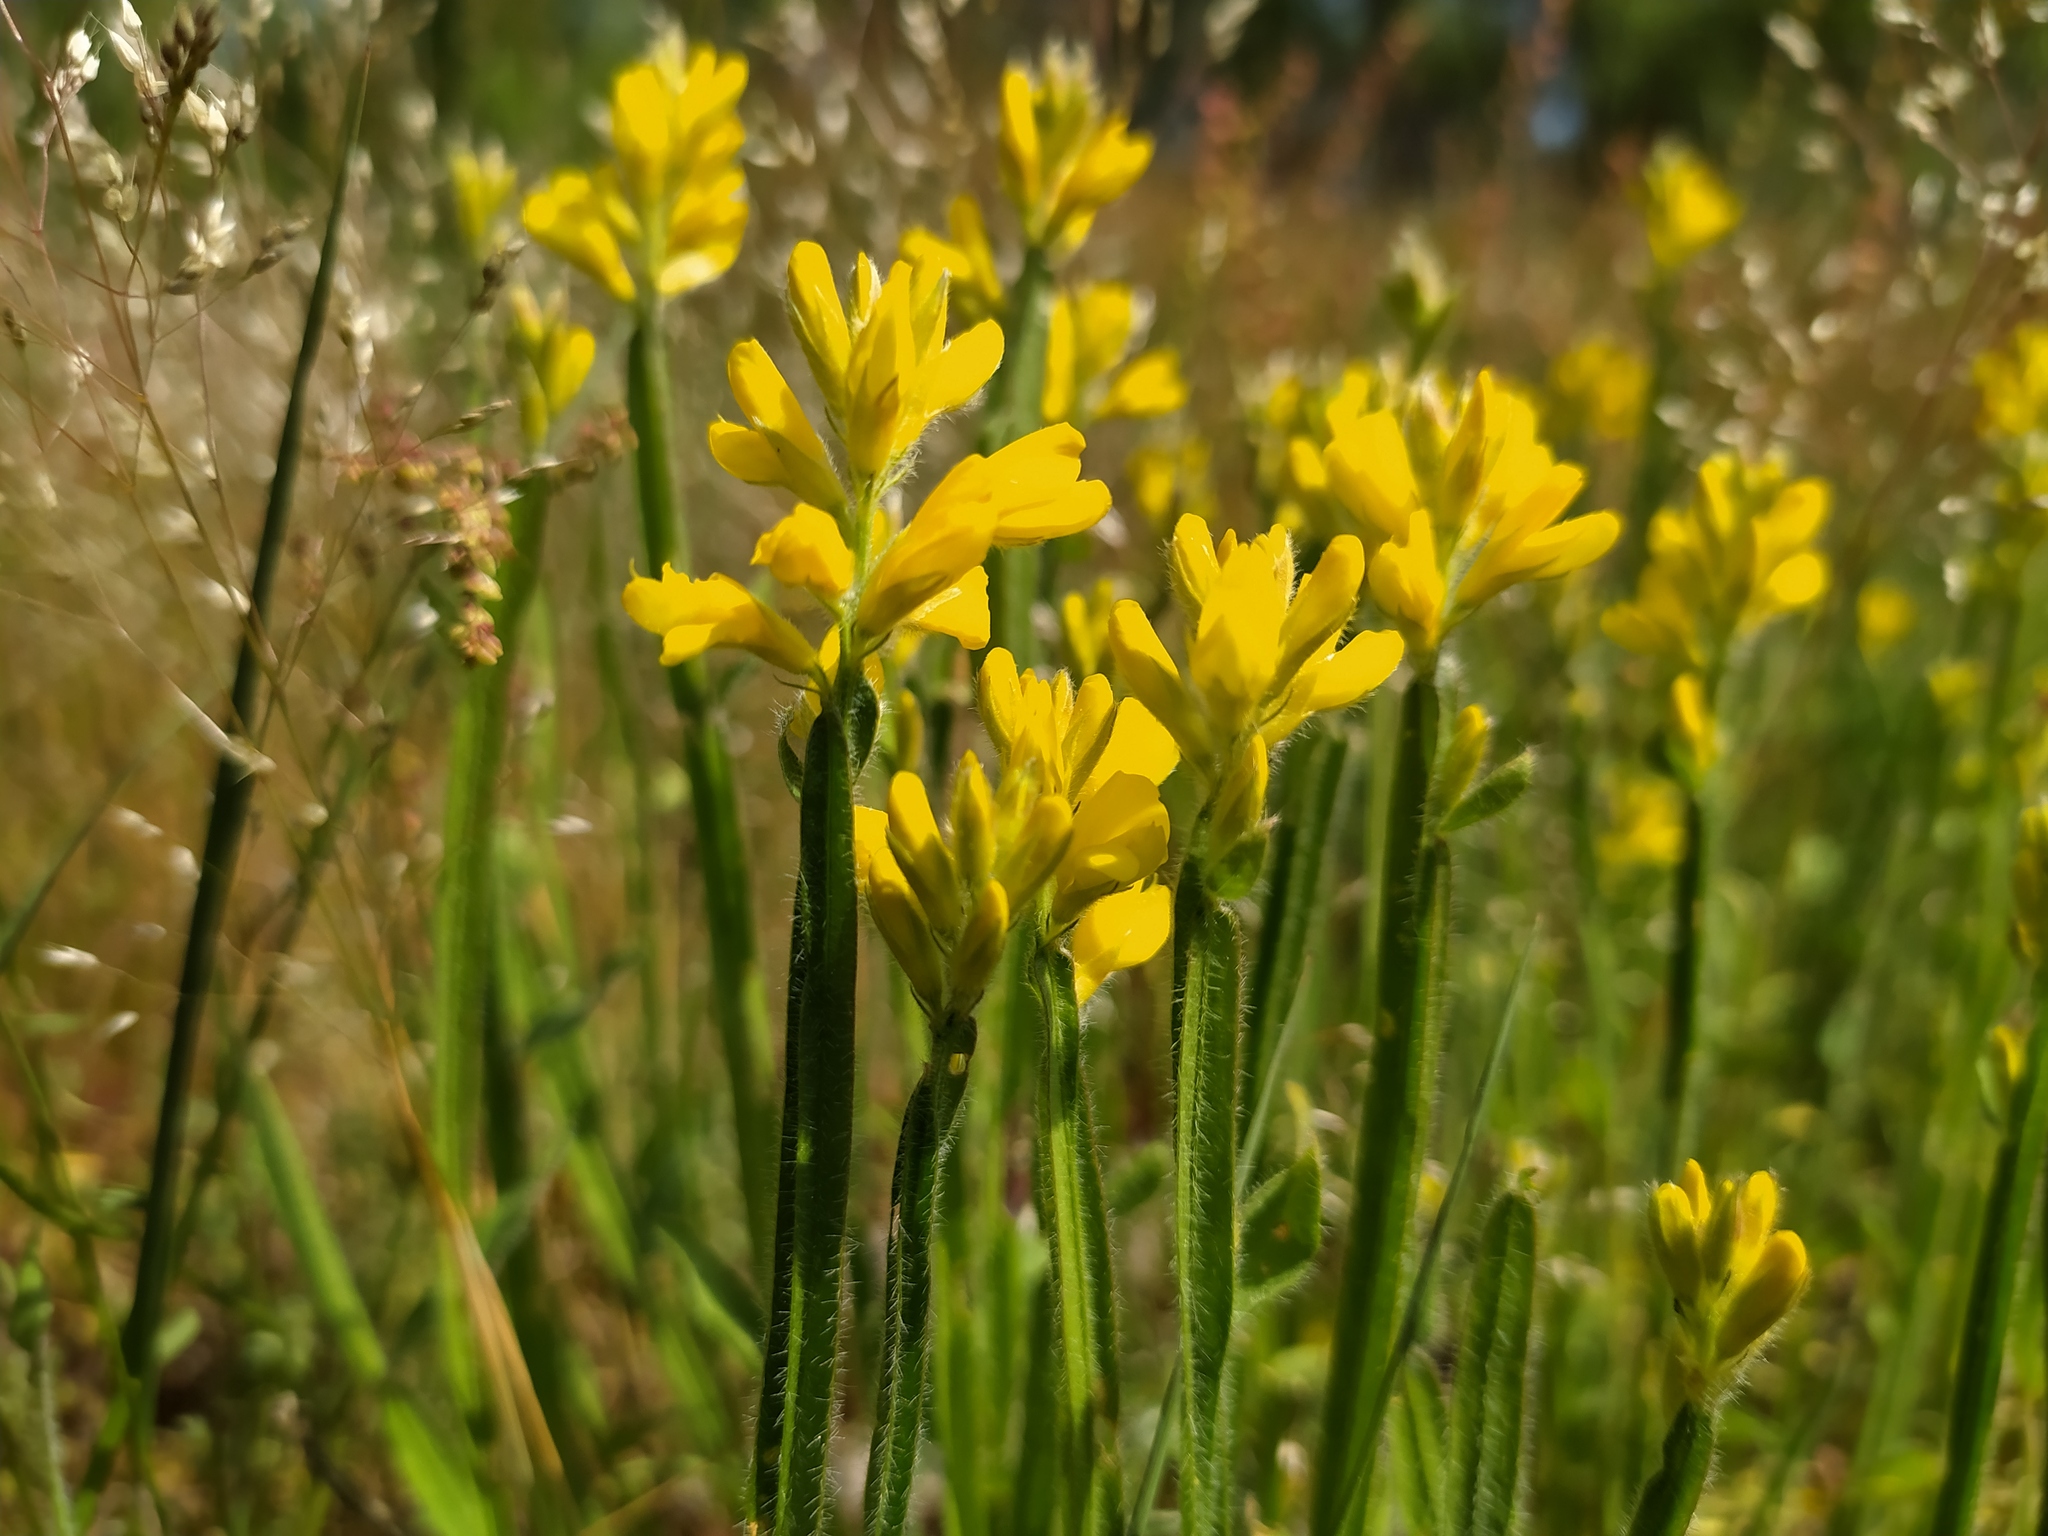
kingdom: Plantae
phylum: Tracheophyta
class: Magnoliopsida
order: Fabales
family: Fabaceae
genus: Genista
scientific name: Genista sagittalis
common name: Winged greenweed
